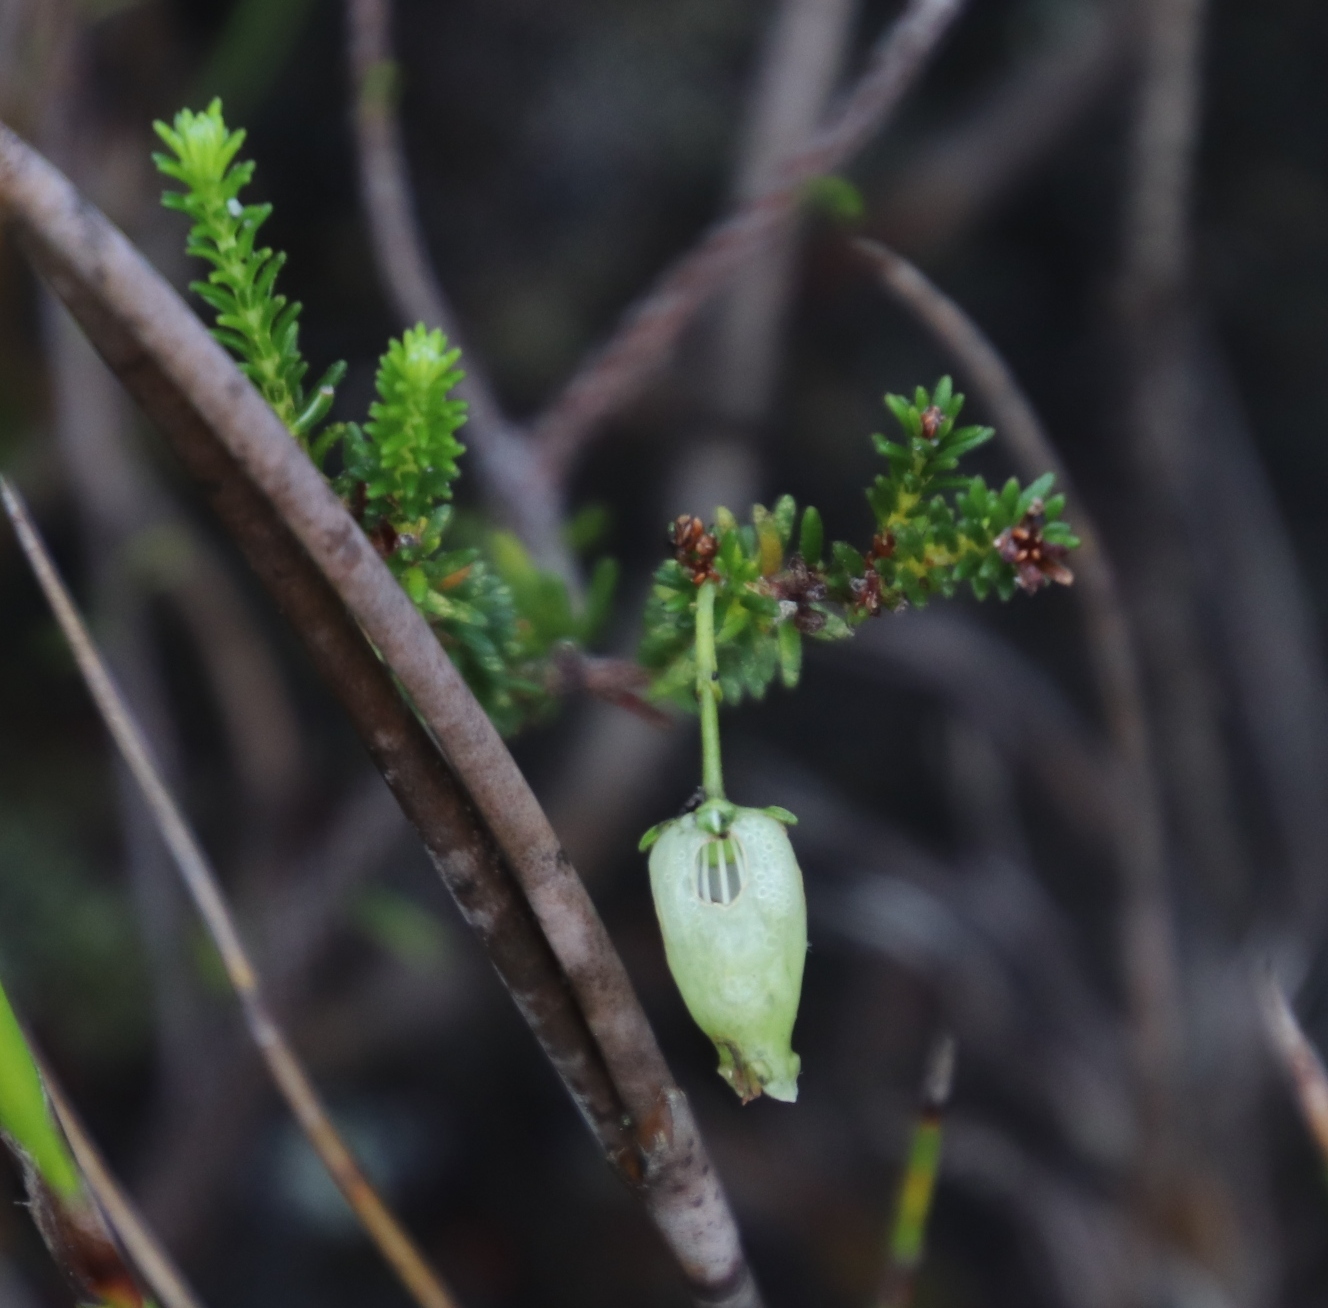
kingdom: Plantae
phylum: Tracheophyta
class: Magnoliopsida
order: Ericales
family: Ericaceae
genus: Erica
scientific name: Erica urna-viridis
